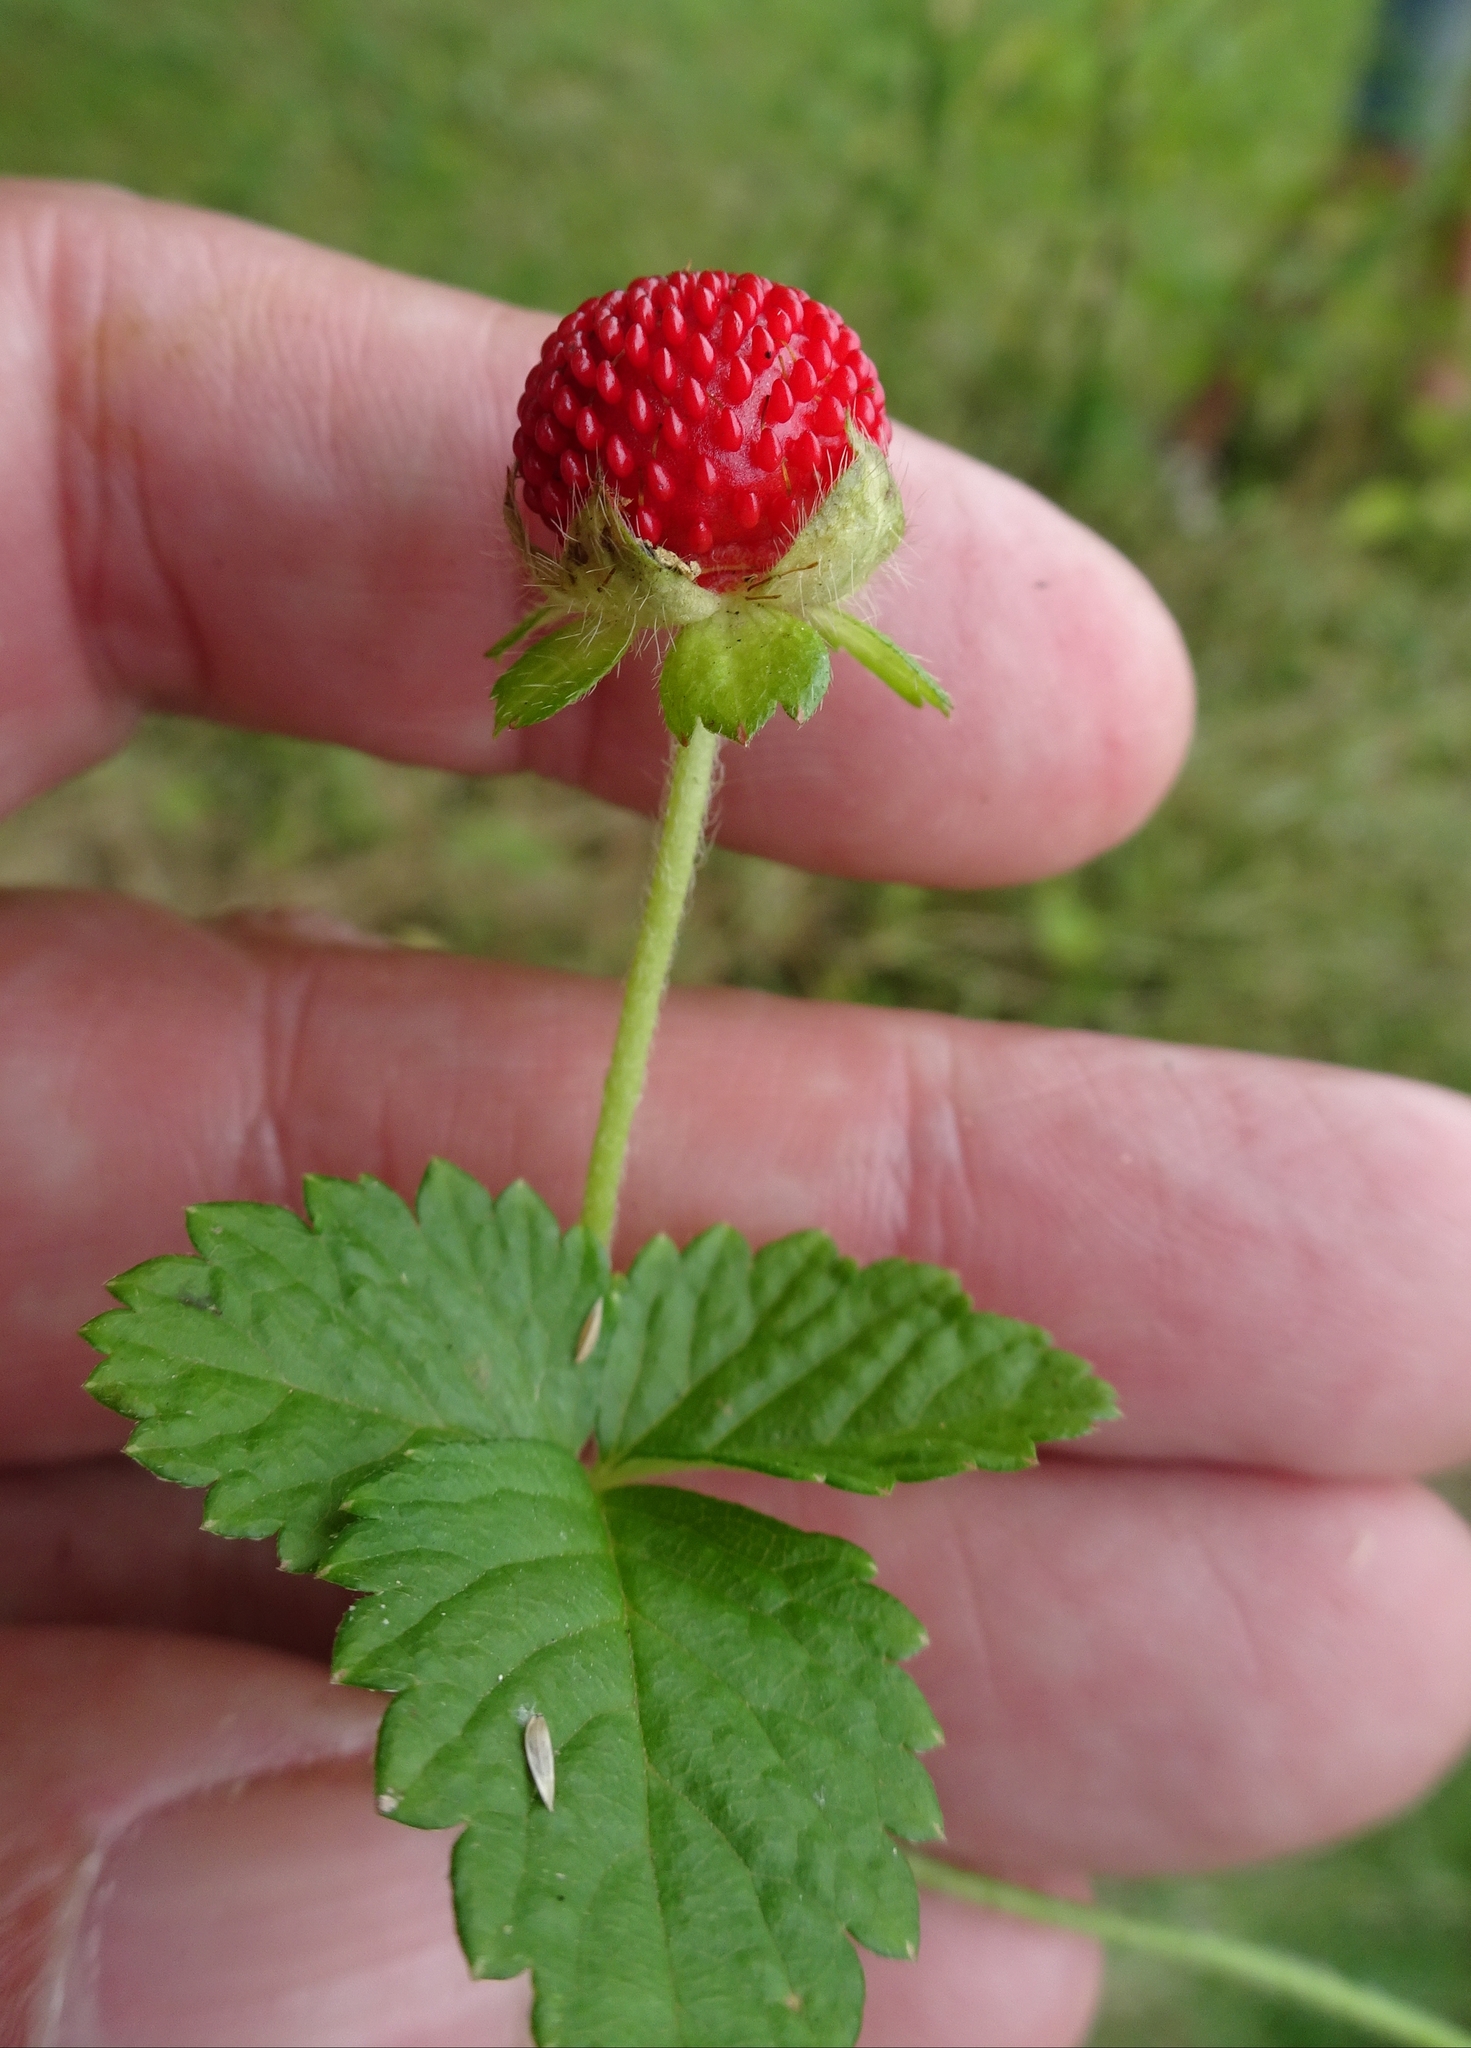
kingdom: Plantae
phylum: Tracheophyta
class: Magnoliopsida
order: Rosales
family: Rosaceae
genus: Potentilla
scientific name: Potentilla indica
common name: Yellow-flowered strawberry
